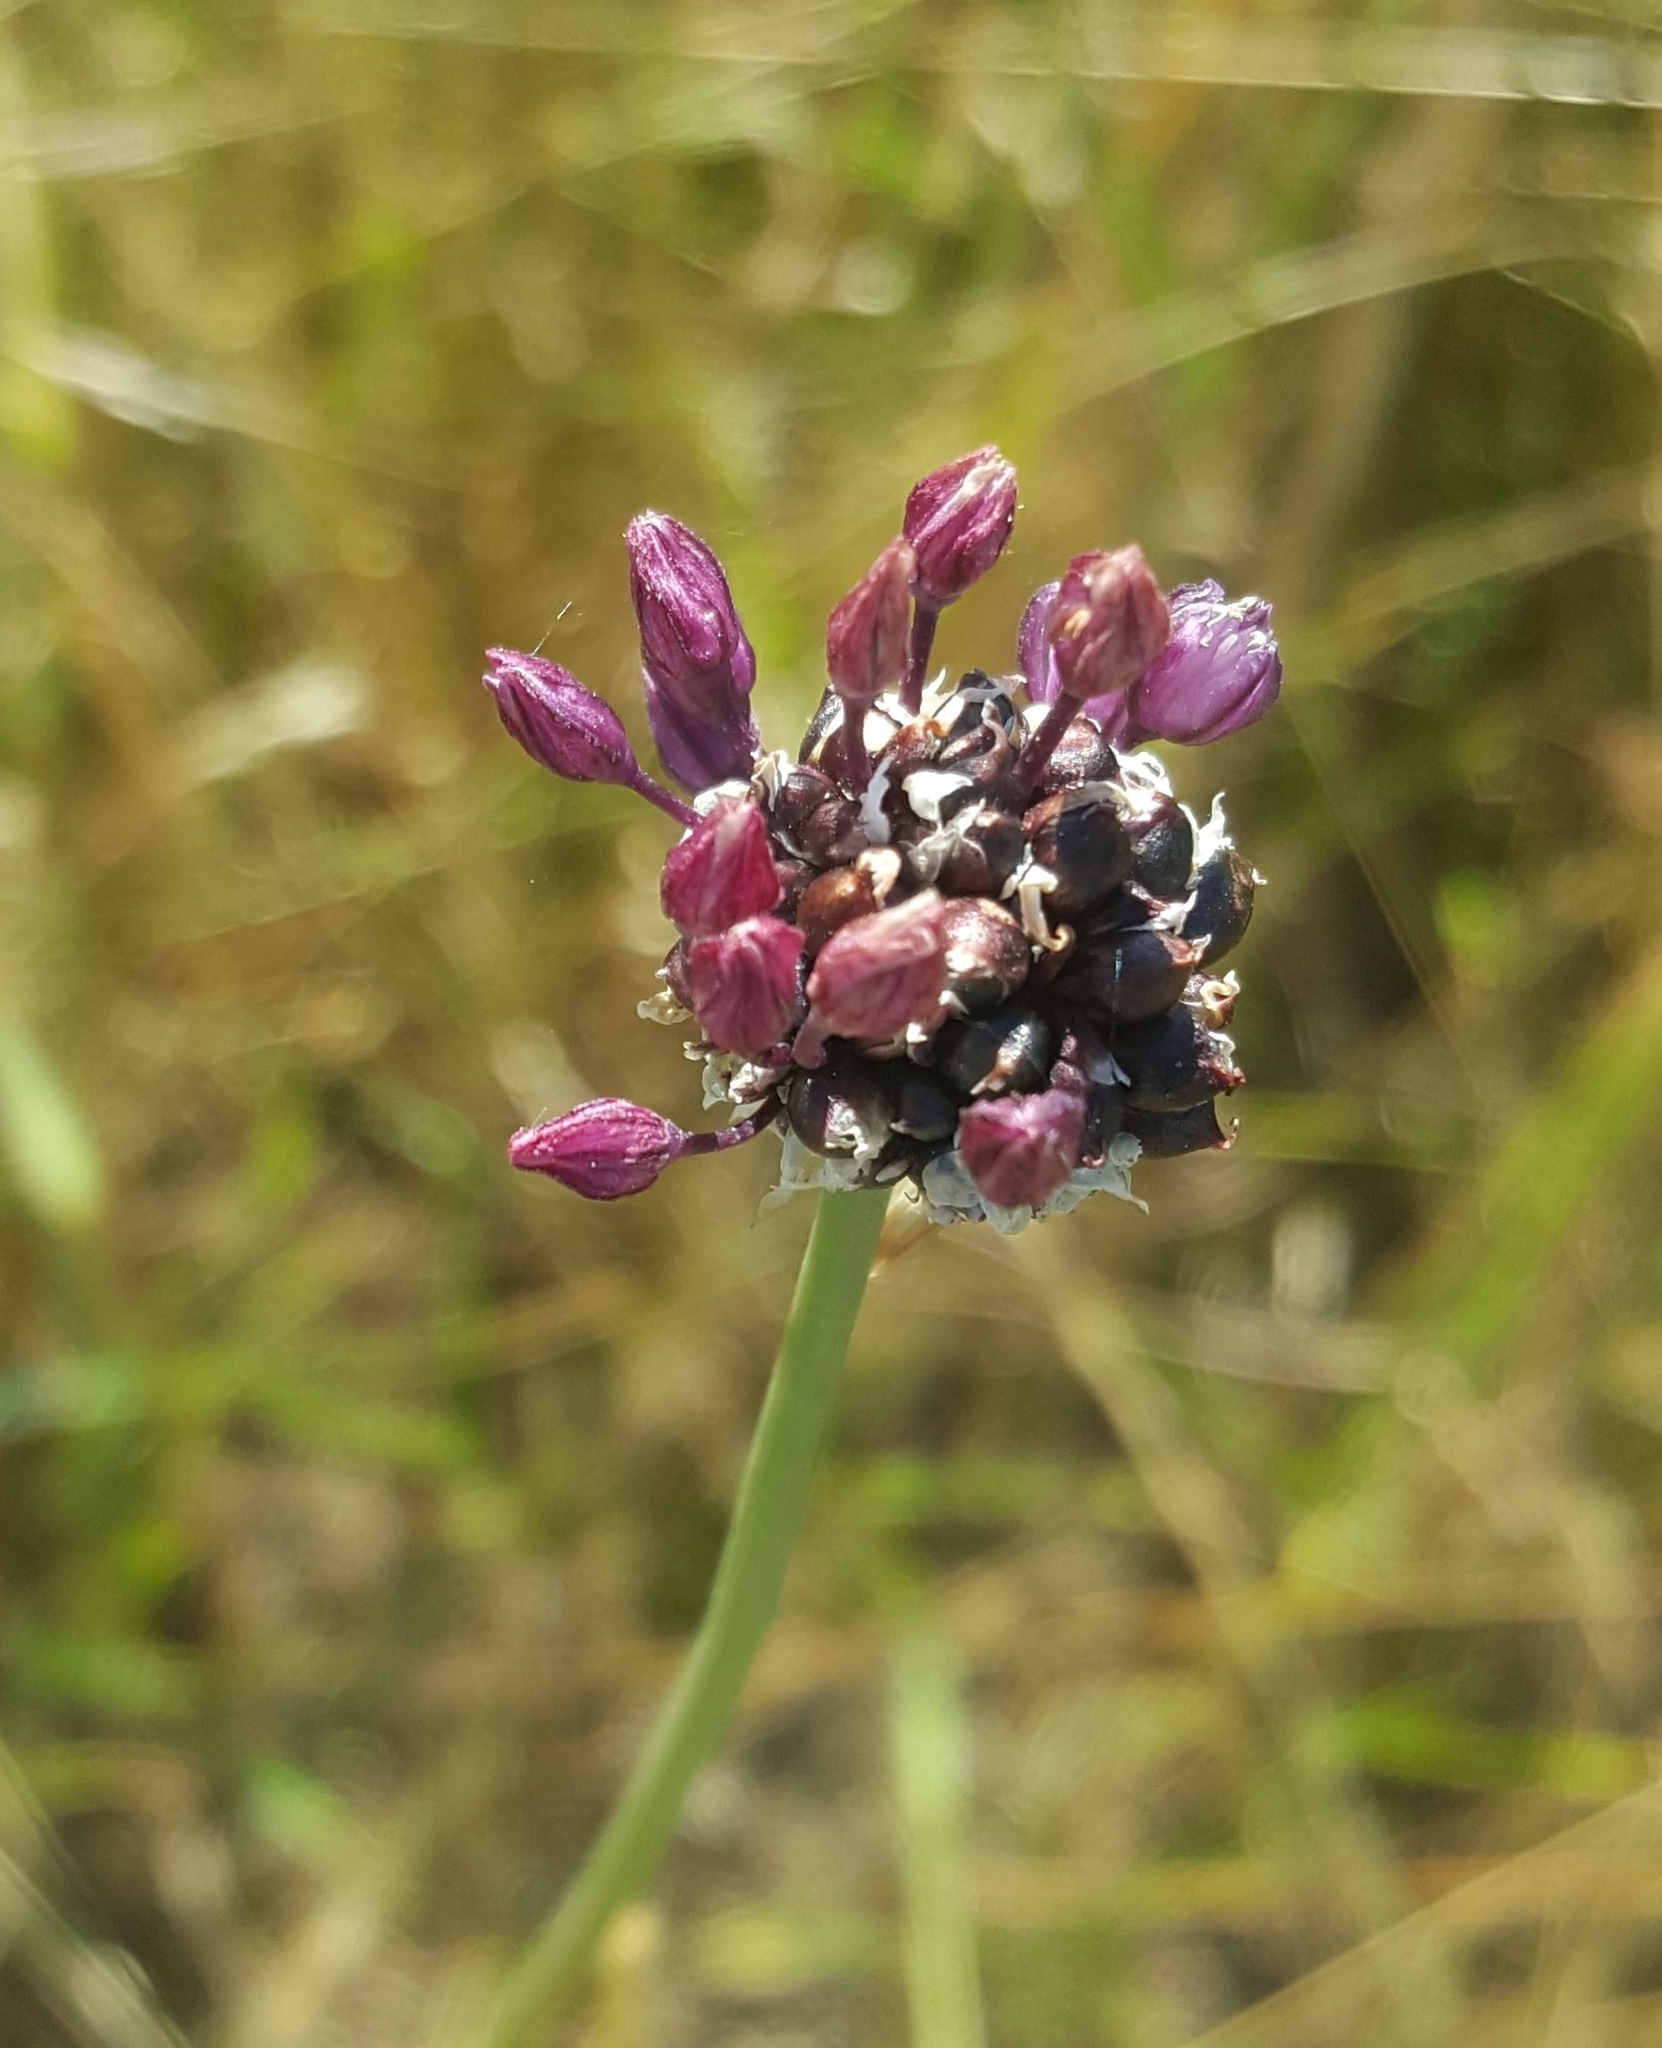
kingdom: Plantae
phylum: Tracheophyta
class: Liliopsida
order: Asparagales
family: Amaryllidaceae
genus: Allium
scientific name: Allium scorodoprasum
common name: Sand leek
